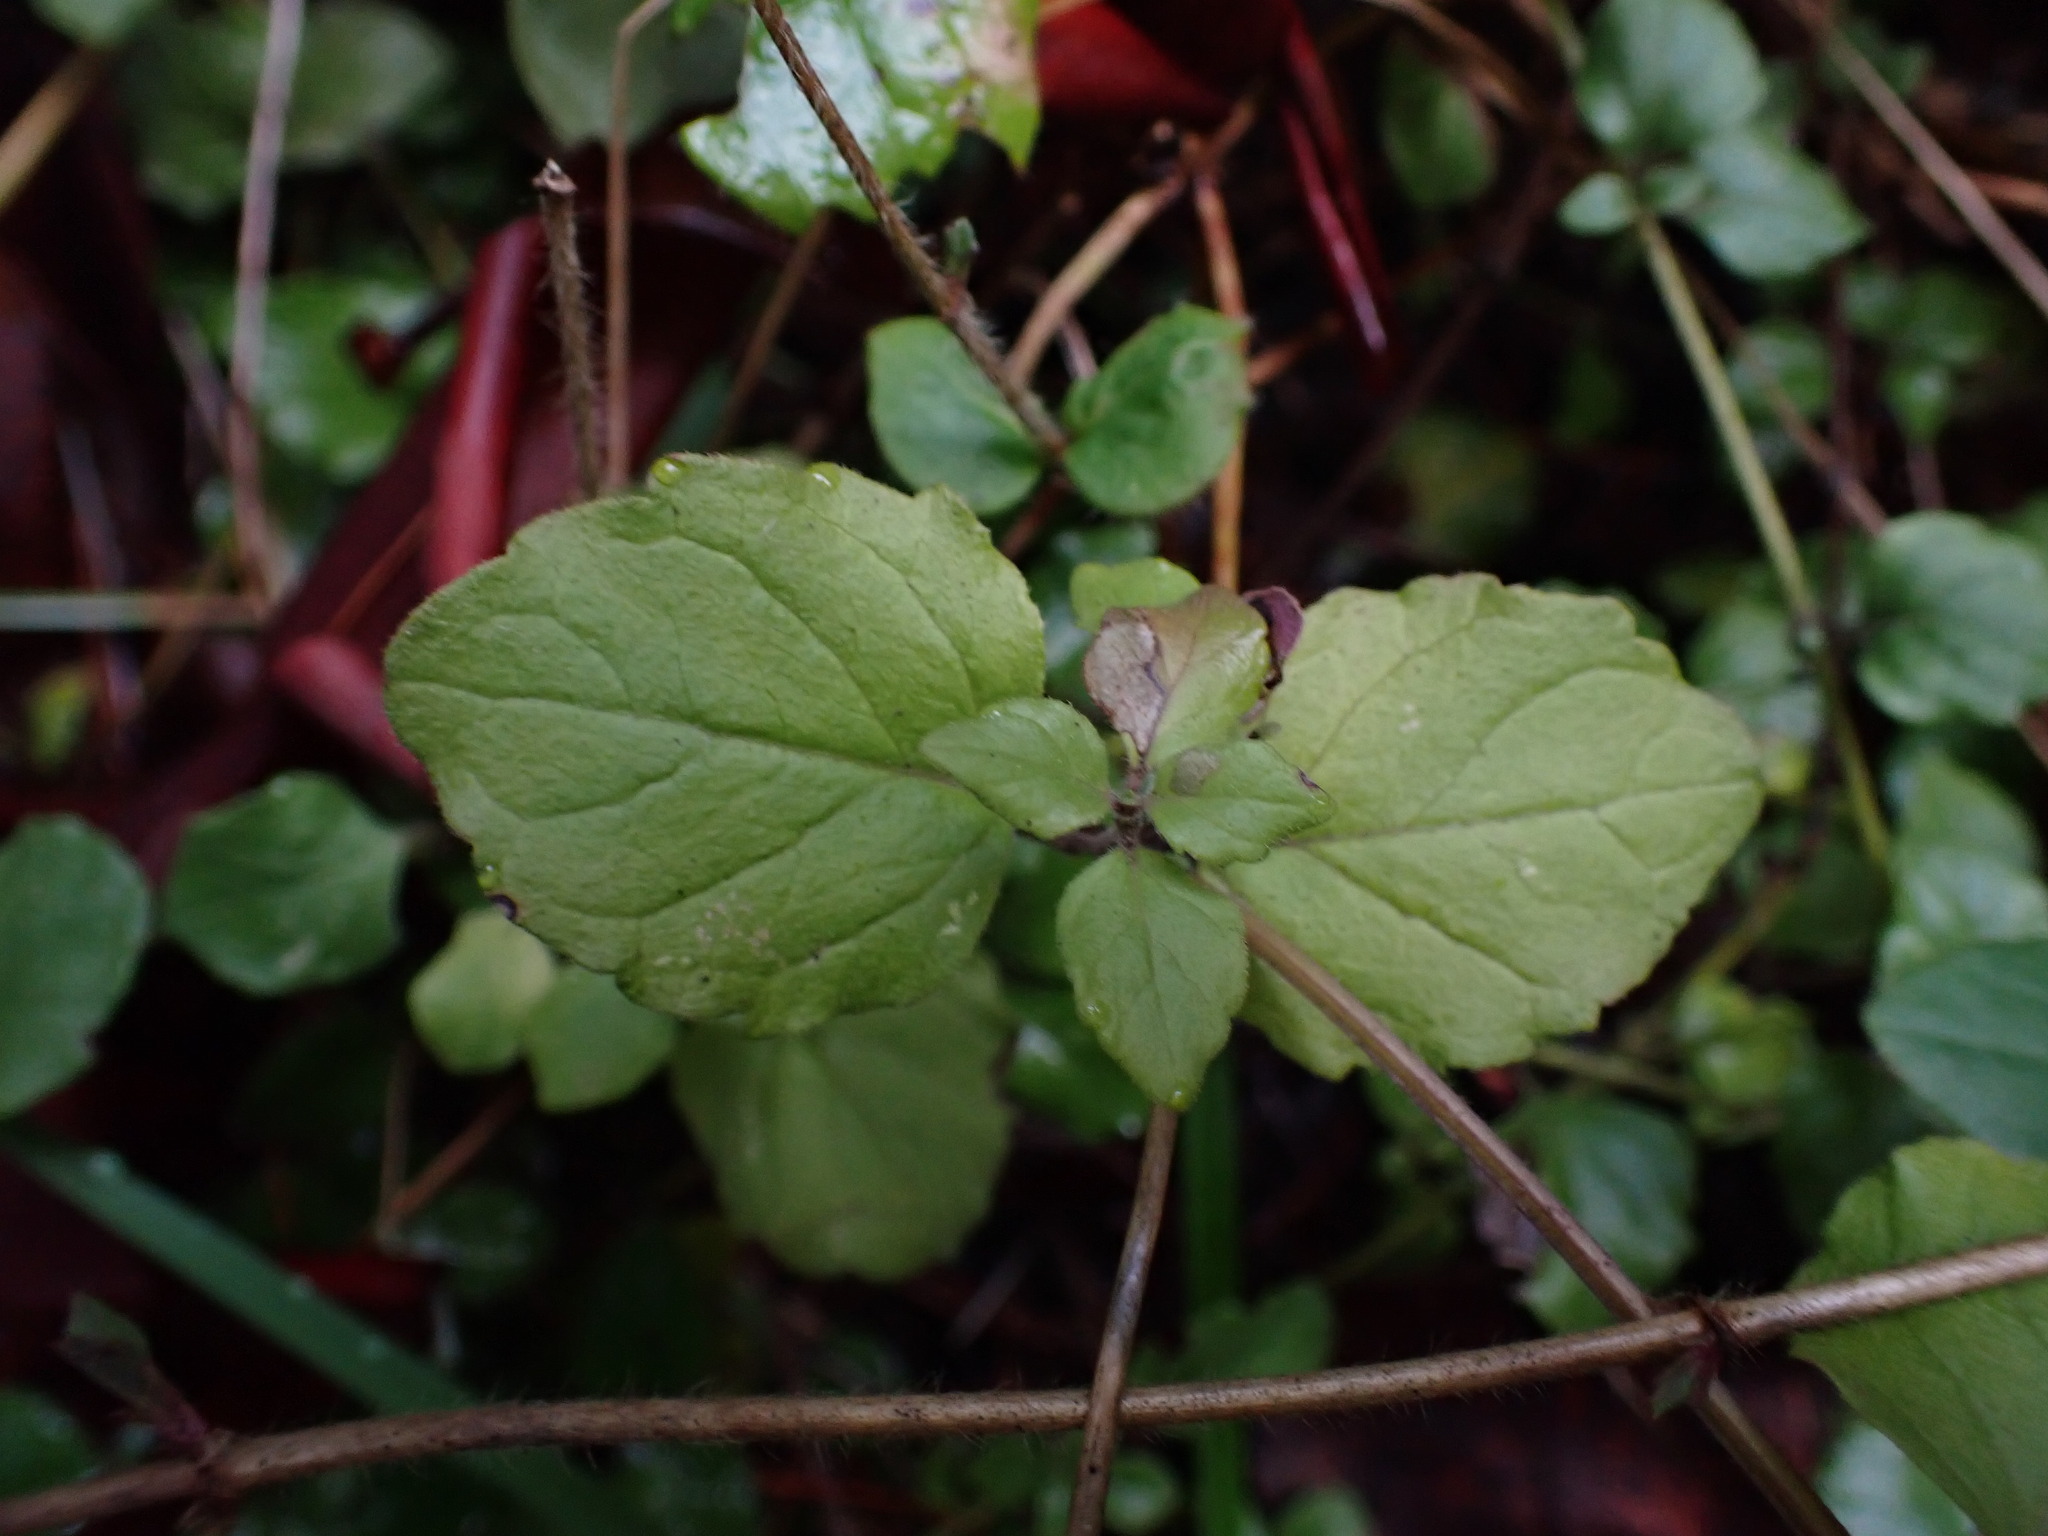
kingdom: Plantae
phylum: Tracheophyta
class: Magnoliopsida
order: Lamiales
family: Lamiaceae
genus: Micromeria
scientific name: Micromeria douglasii
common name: Yerba buena
